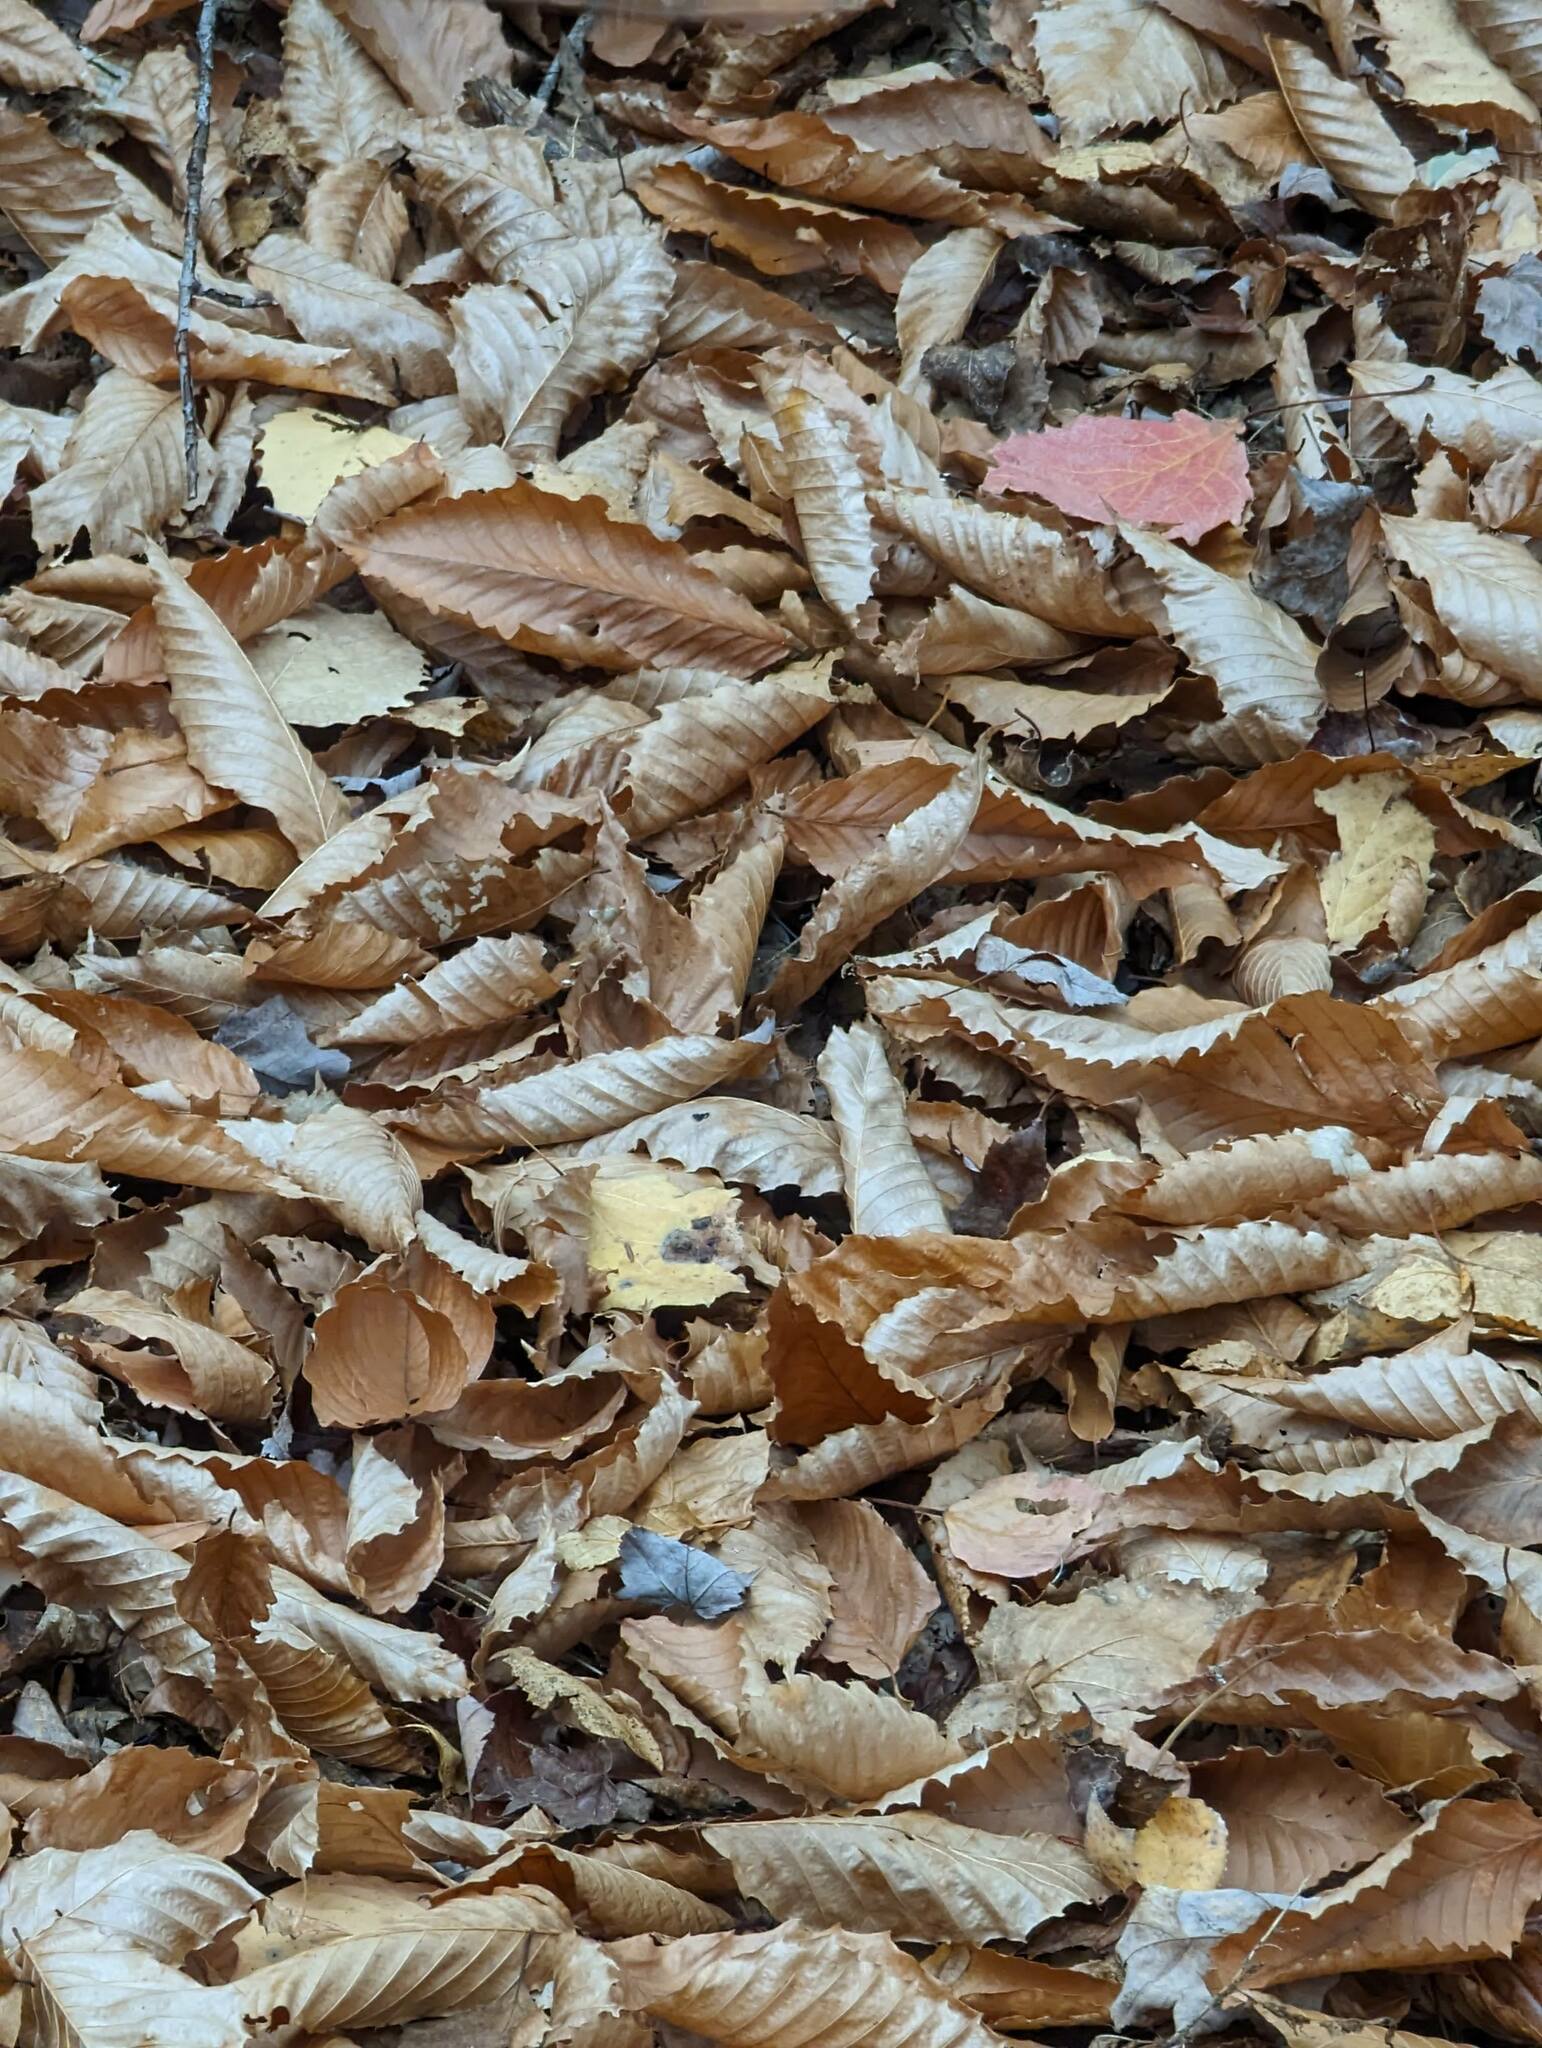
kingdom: Plantae
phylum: Tracheophyta
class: Magnoliopsida
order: Fagales
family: Fagaceae
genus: Fagus
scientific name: Fagus grandifolia
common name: American beech
